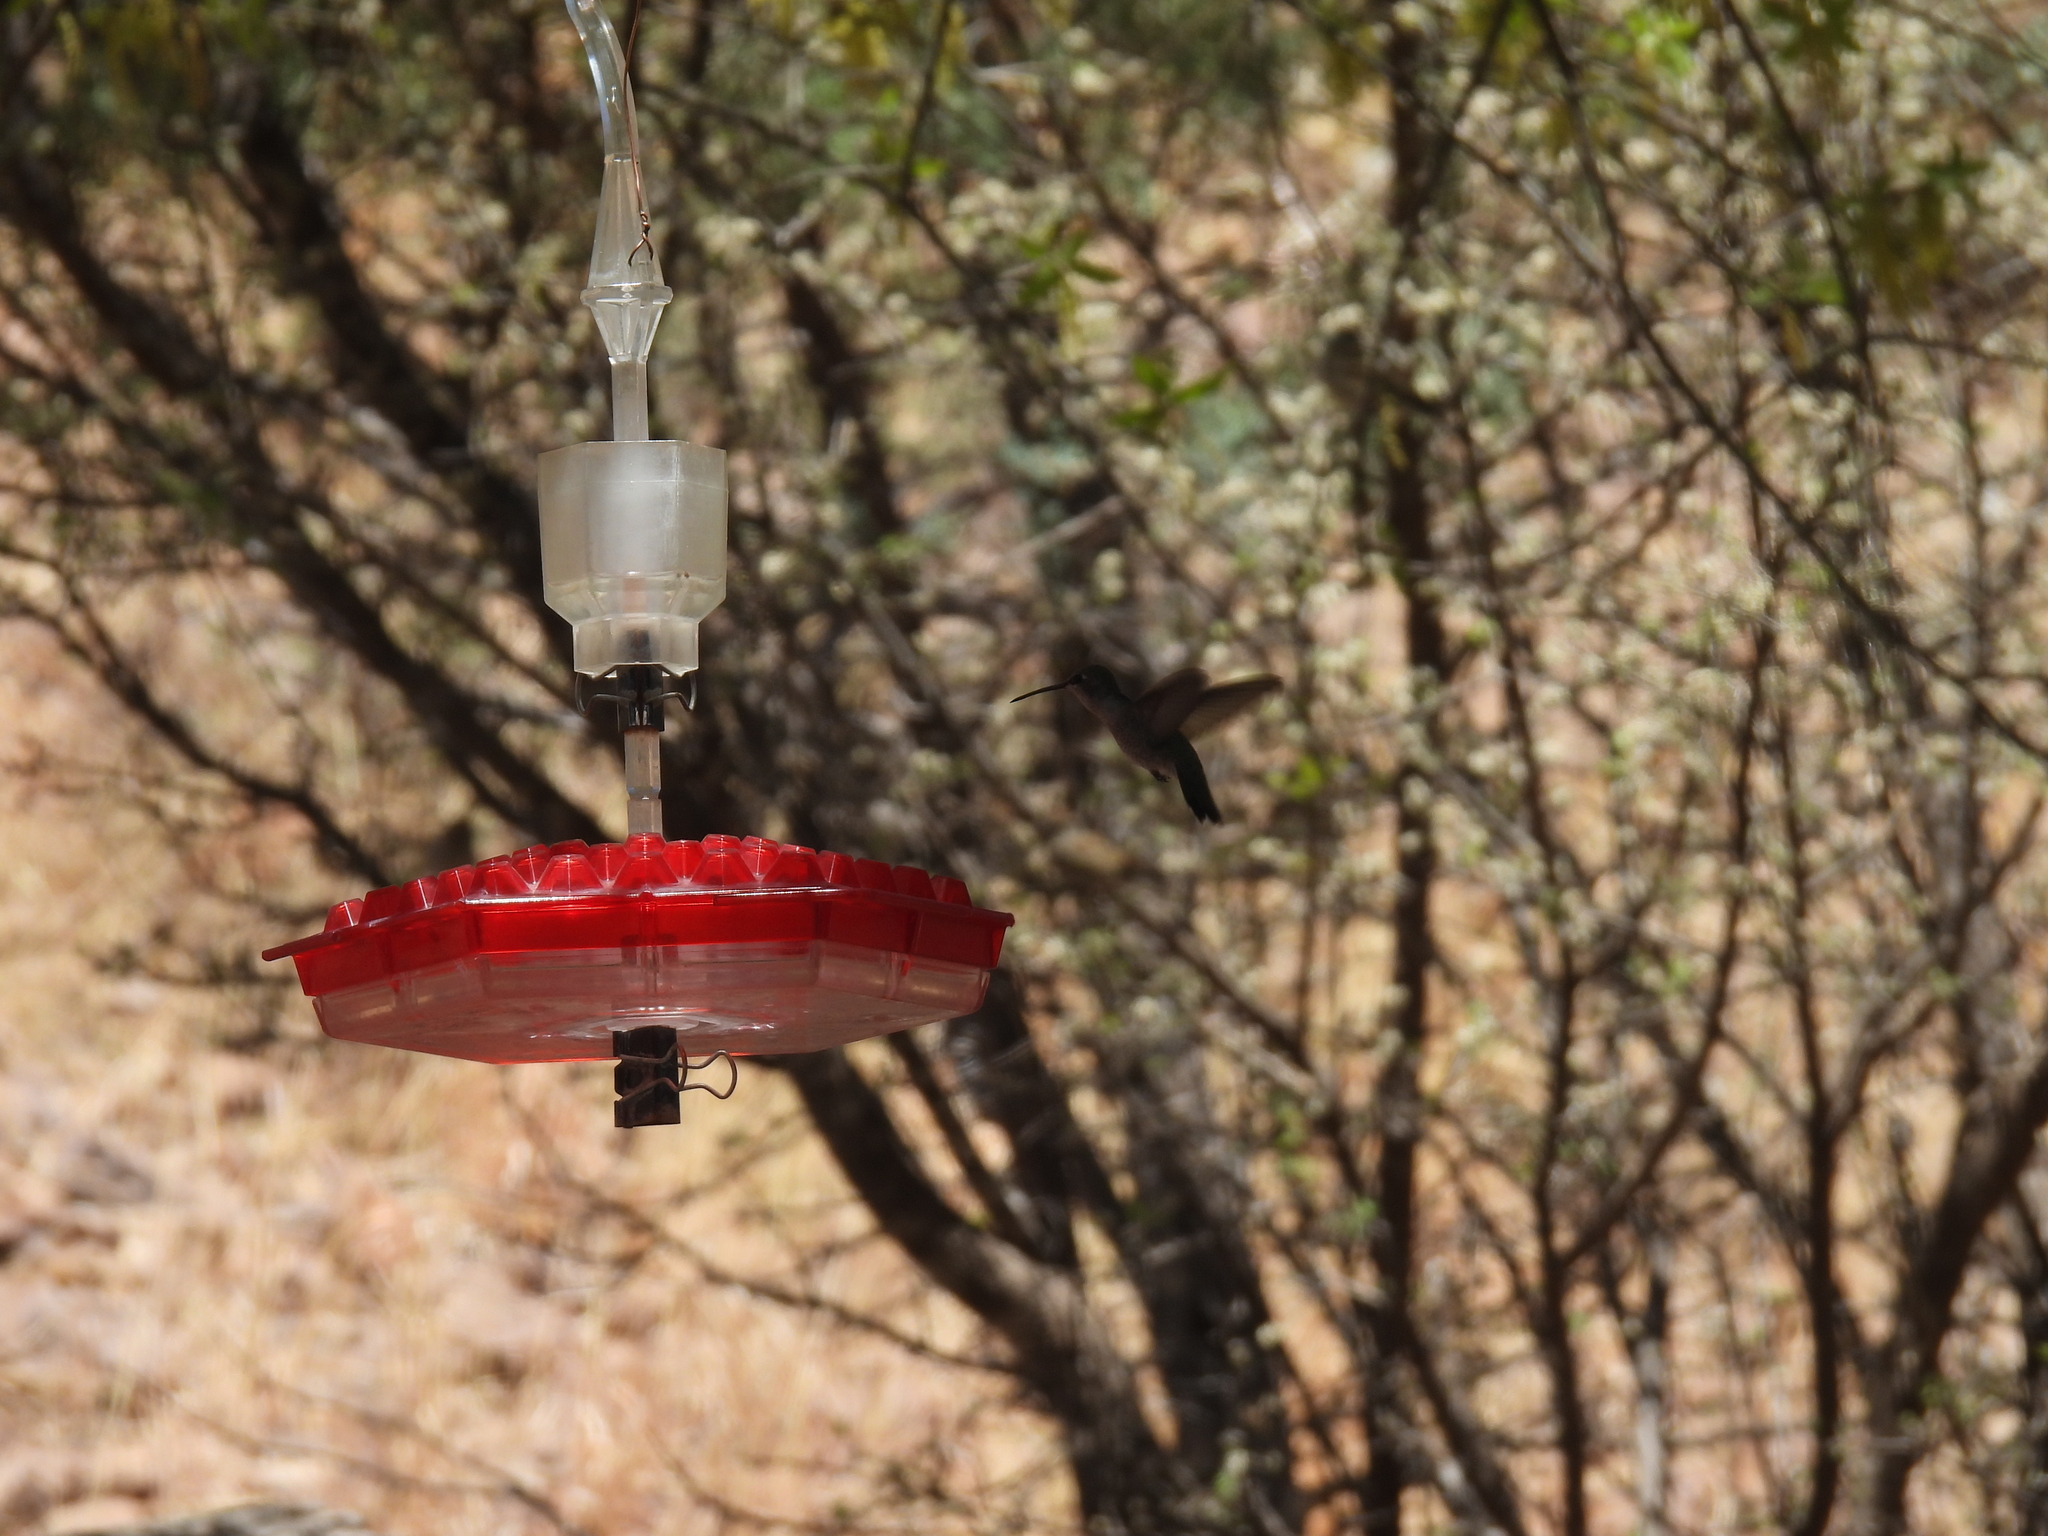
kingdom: Animalia
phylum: Chordata
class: Aves
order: Apodiformes
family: Trochilidae
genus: Archilochus
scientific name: Archilochus alexandri
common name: Black-chinned hummingbird
